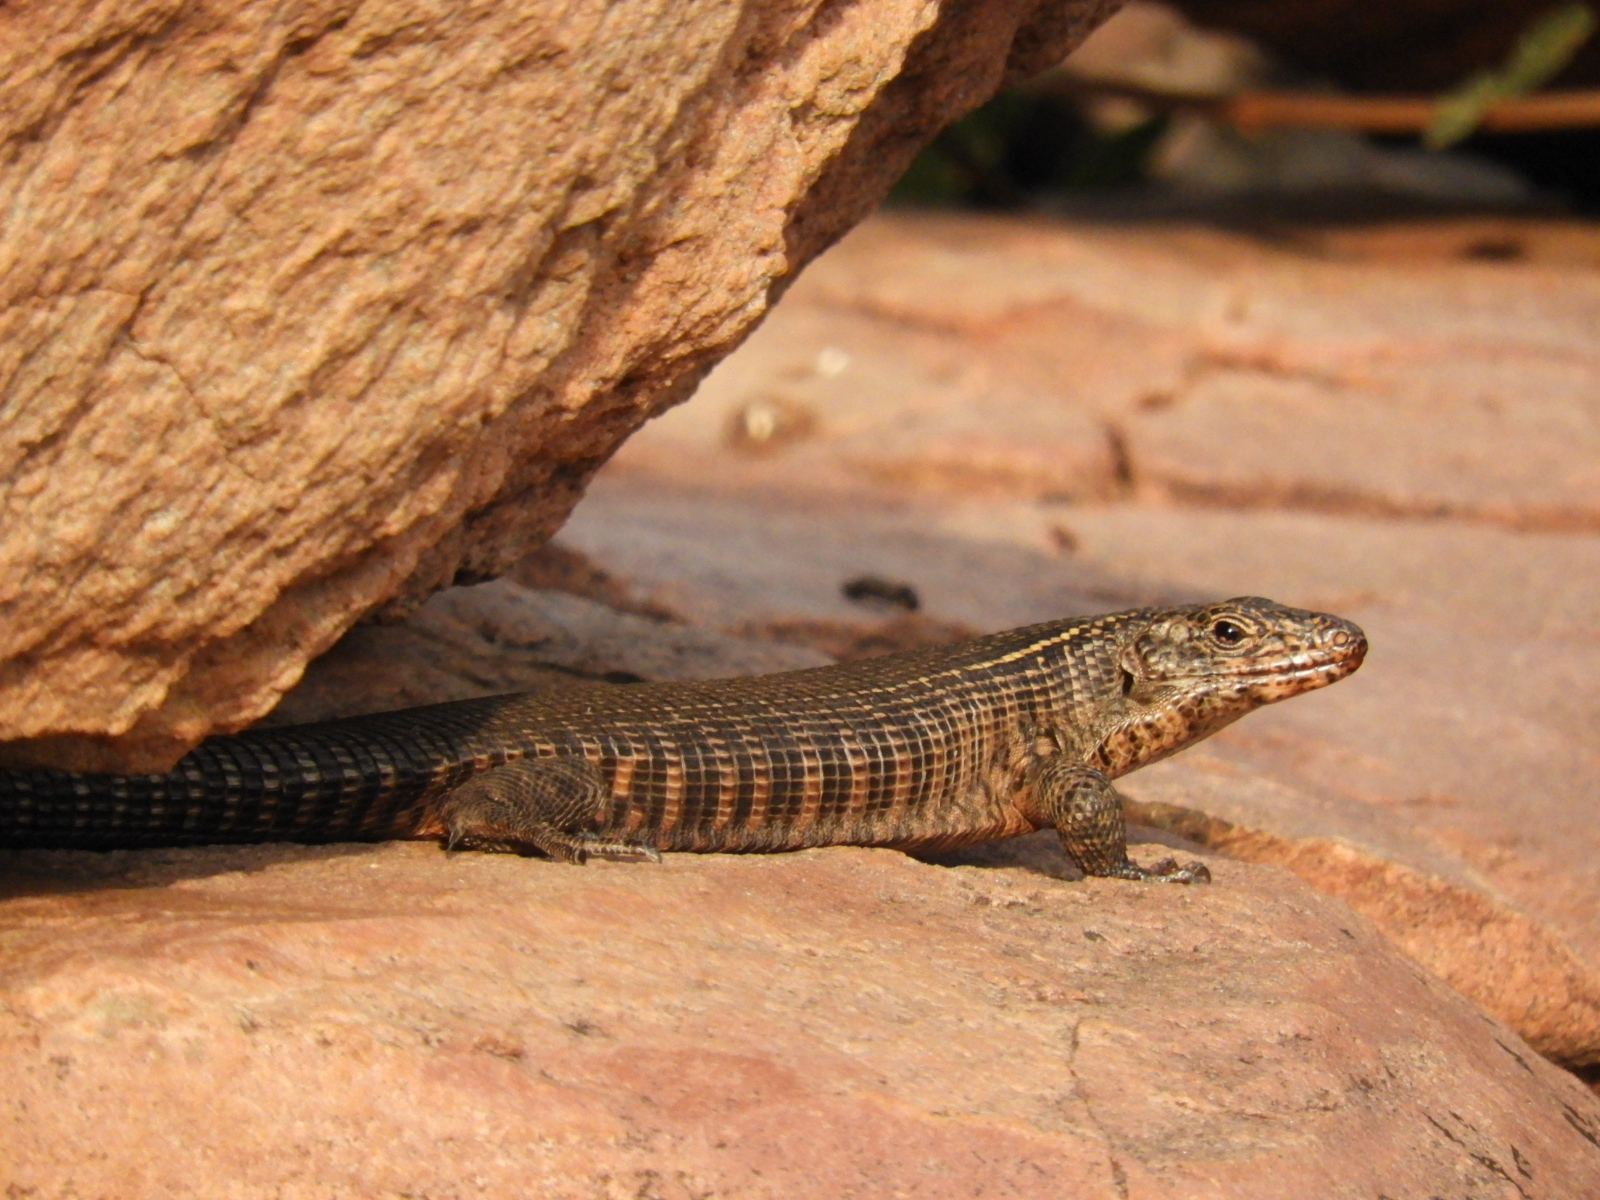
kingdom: Animalia
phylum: Chordata
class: Squamata
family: Gerrhosauridae
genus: Matobosaurus
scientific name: Matobosaurus validus
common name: Common giant plated lizard
